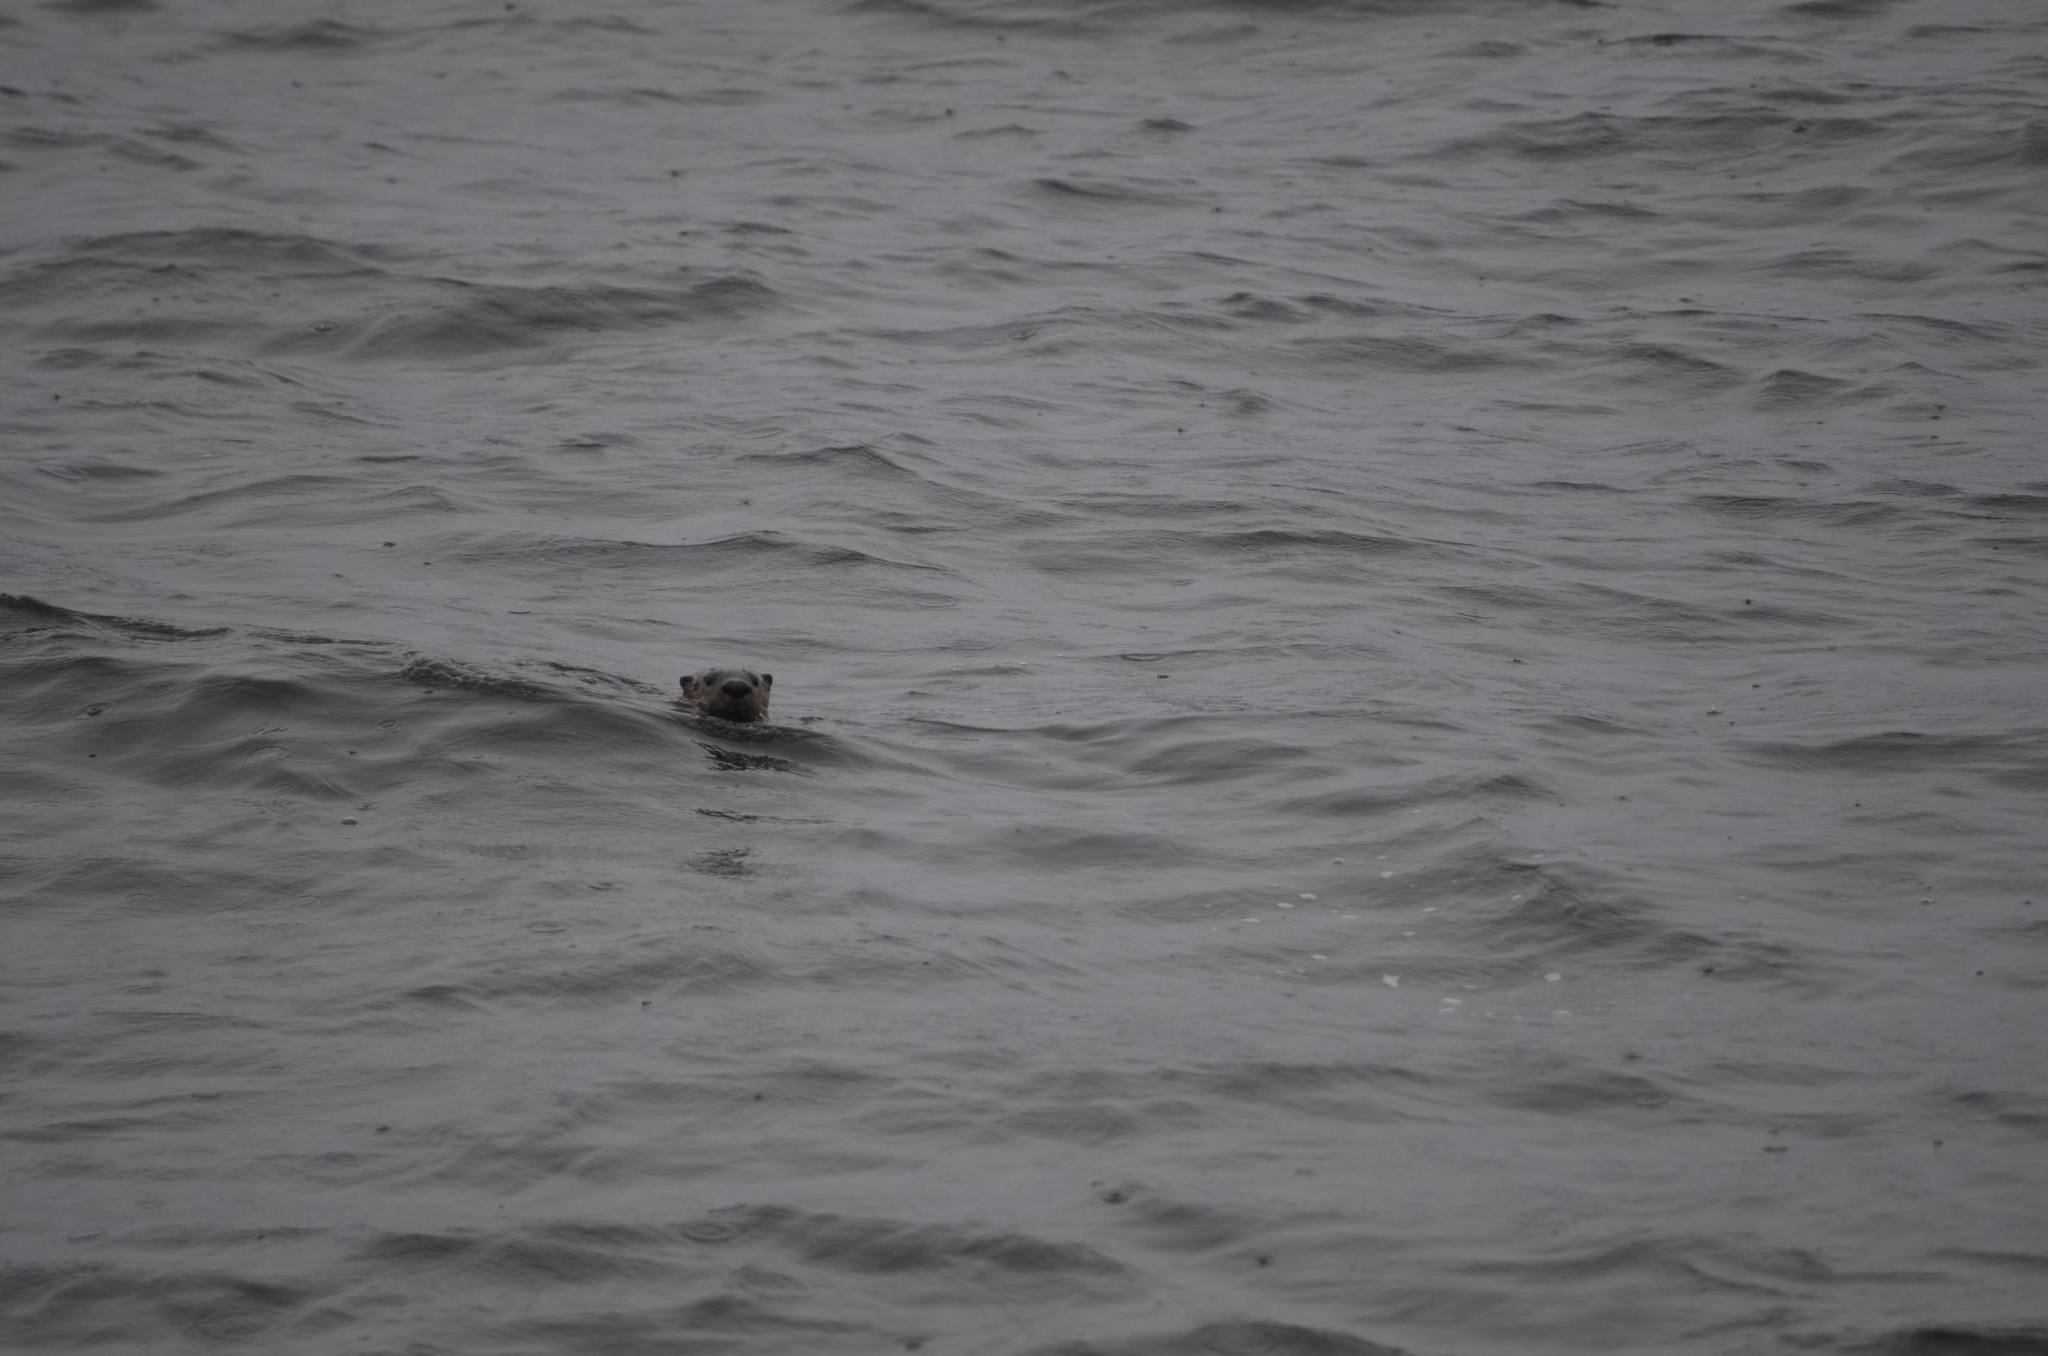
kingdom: Animalia
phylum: Chordata
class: Mammalia
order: Carnivora
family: Mustelidae
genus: Lontra
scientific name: Lontra canadensis
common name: North american river otter
